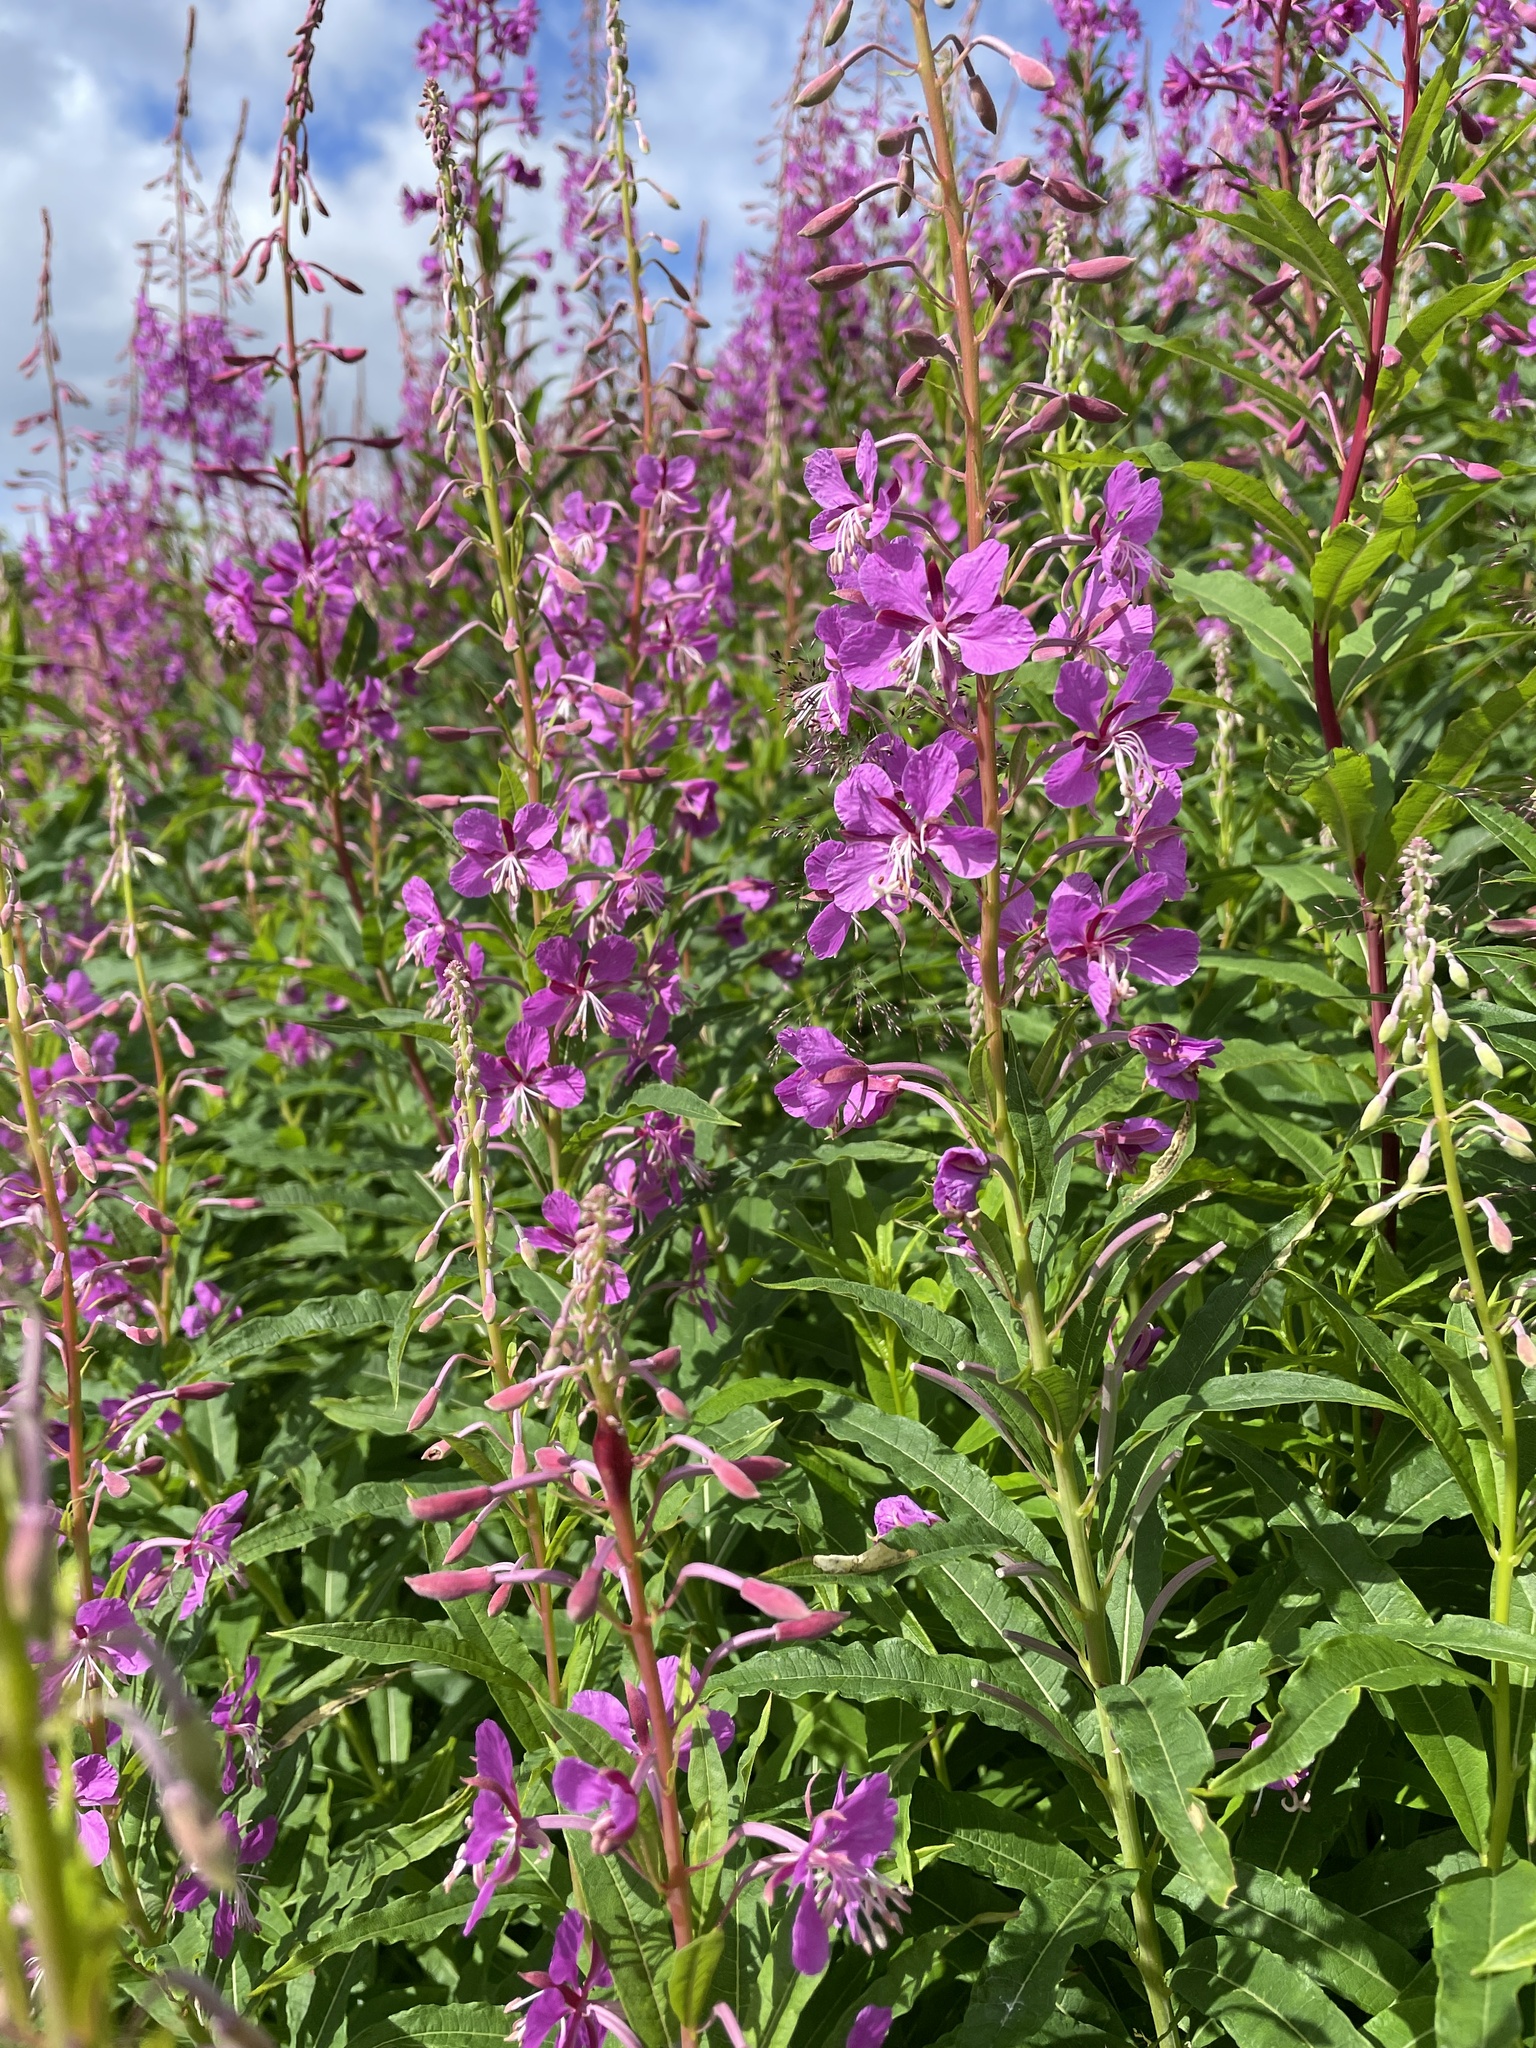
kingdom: Plantae
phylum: Tracheophyta
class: Magnoliopsida
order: Myrtales
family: Onagraceae
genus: Chamaenerion
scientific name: Chamaenerion angustifolium
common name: Fireweed
